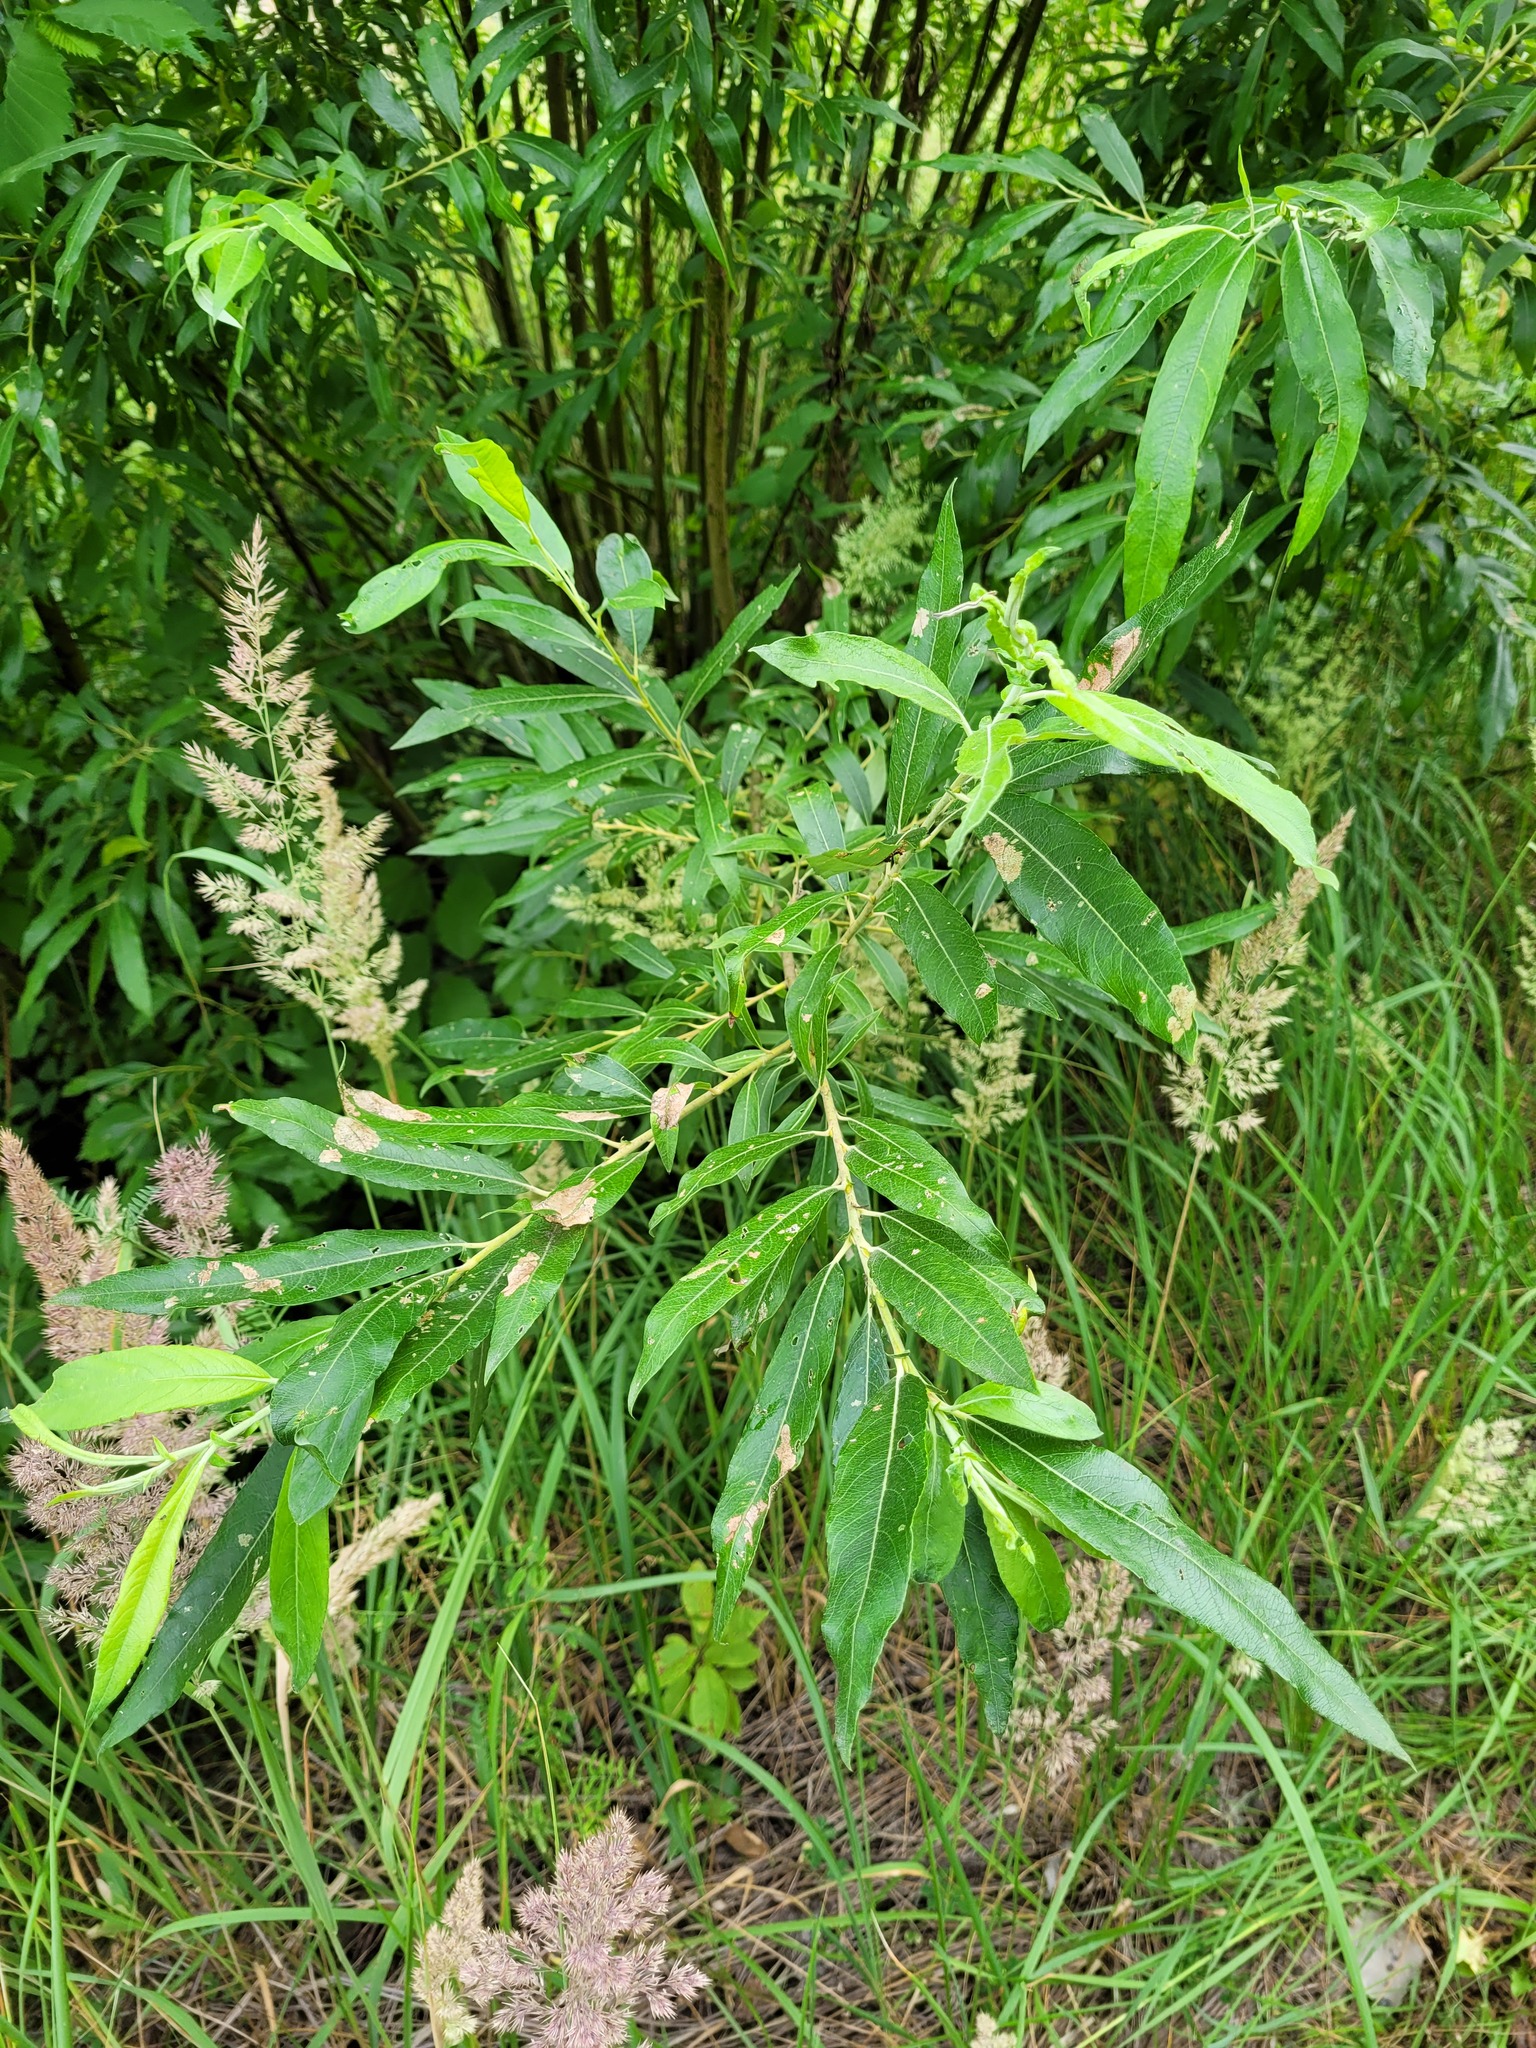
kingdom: Plantae
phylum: Tracheophyta
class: Magnoliopsida
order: Malpighiales
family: Salicaceae
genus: Salix
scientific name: Salix gmelinii
